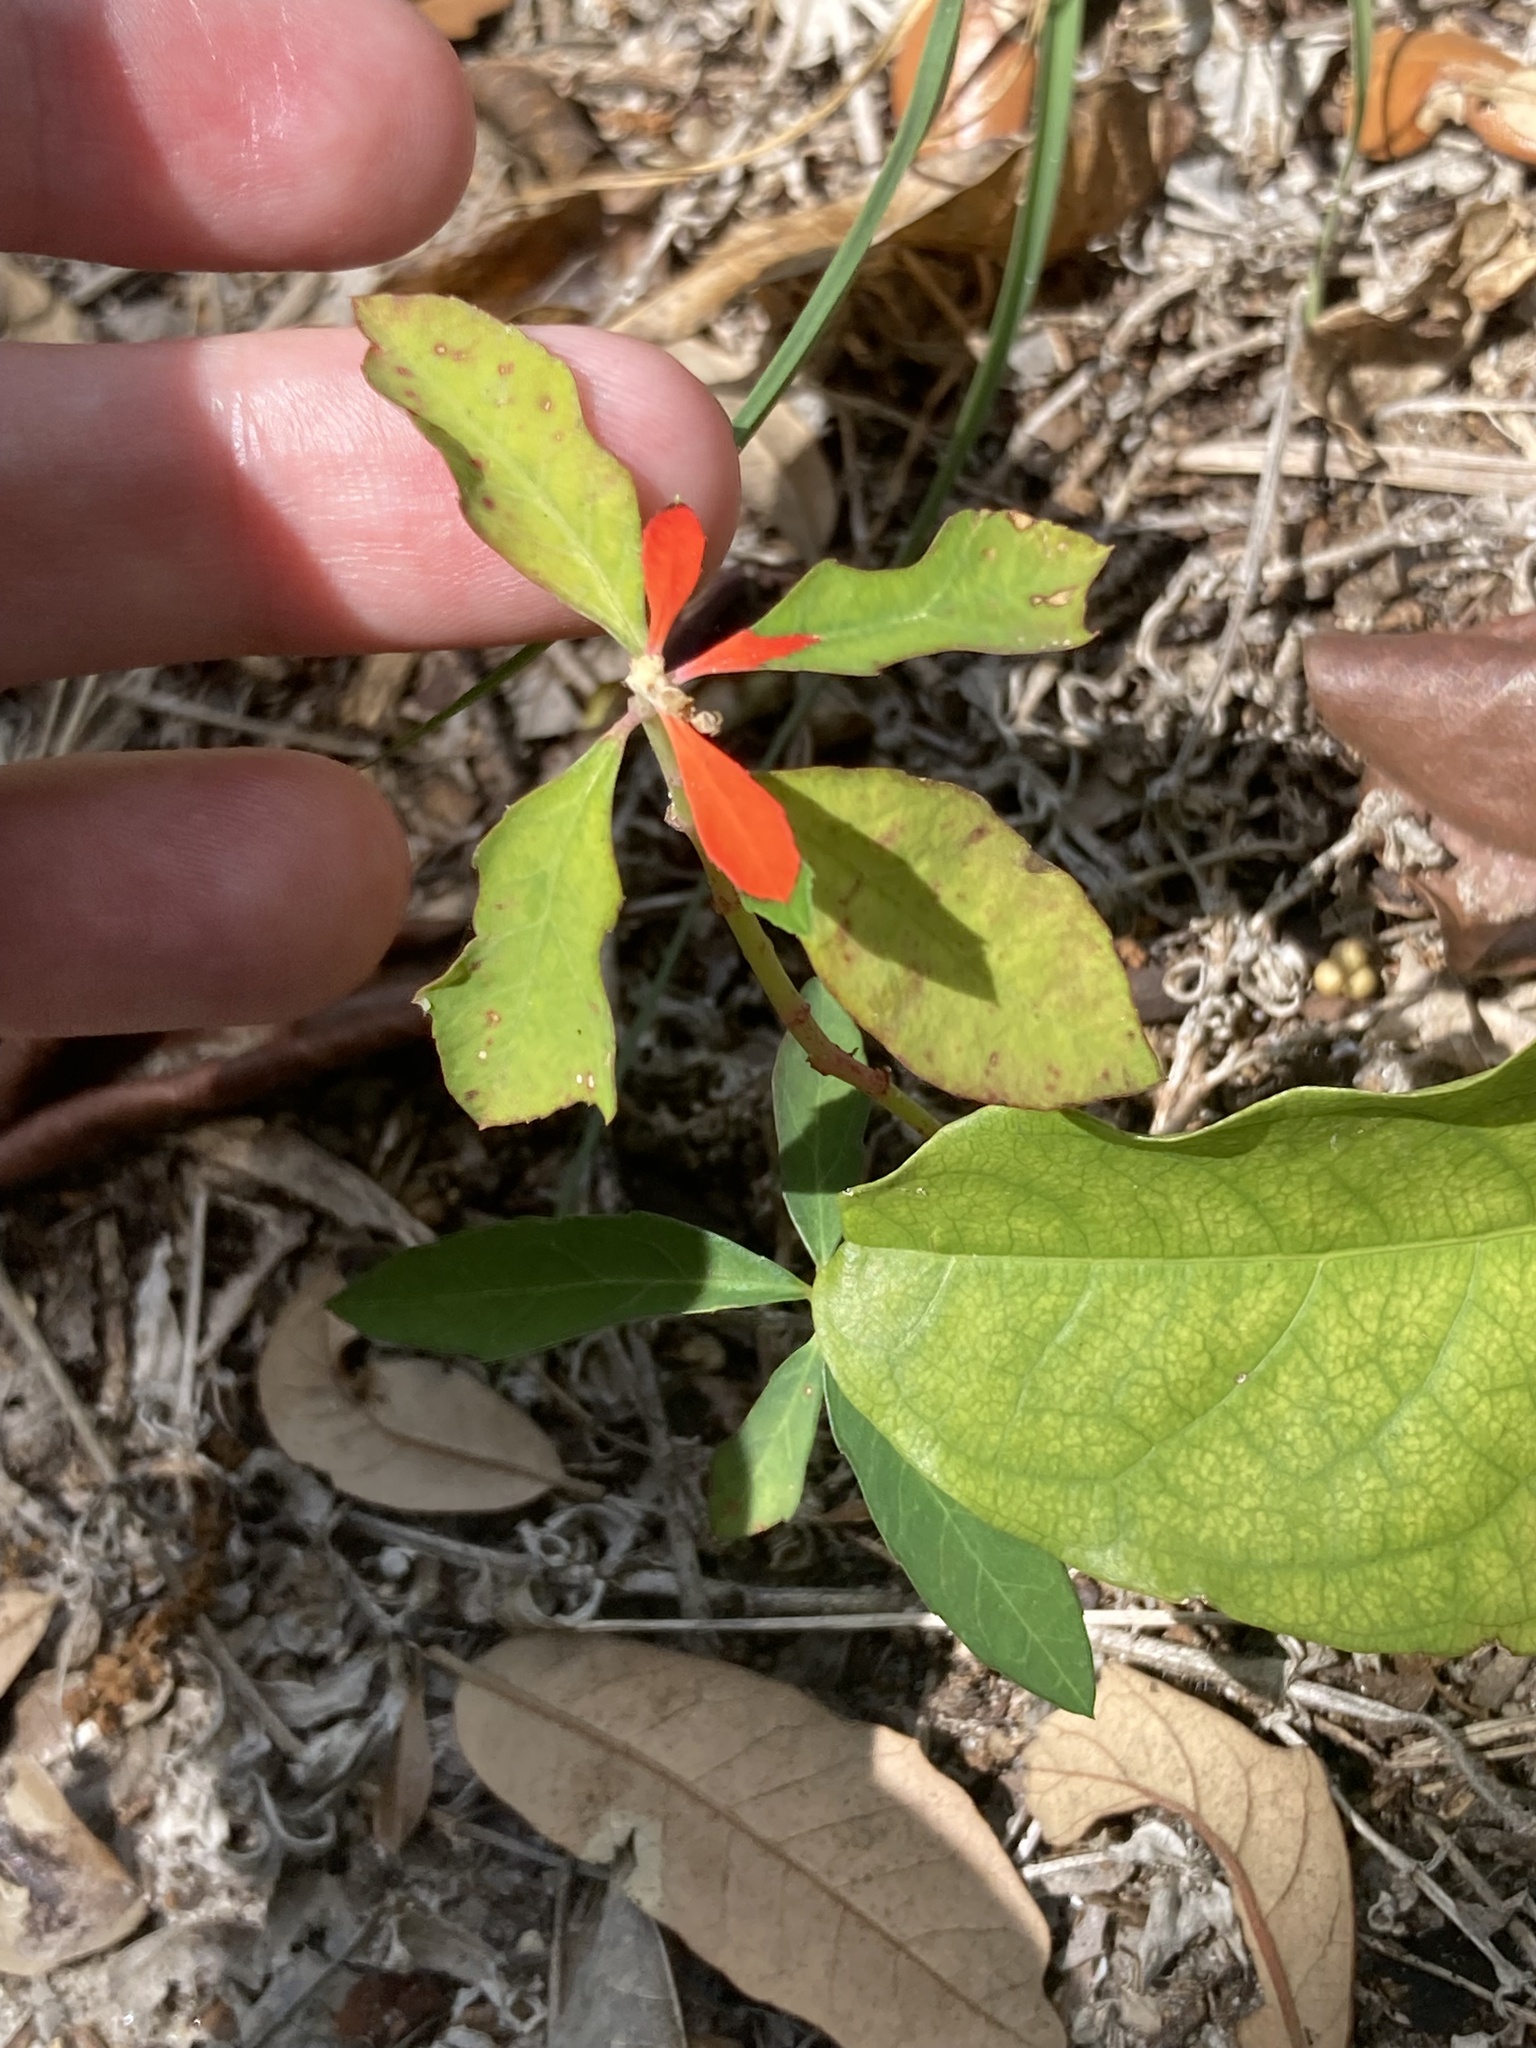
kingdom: Plantae
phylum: Tracheophyta
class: Magnoliopsida
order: Malpighiales
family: Euphorbiaceae
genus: Euphorbia
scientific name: Euphorbia heterophylla
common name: Mexican fireplant
